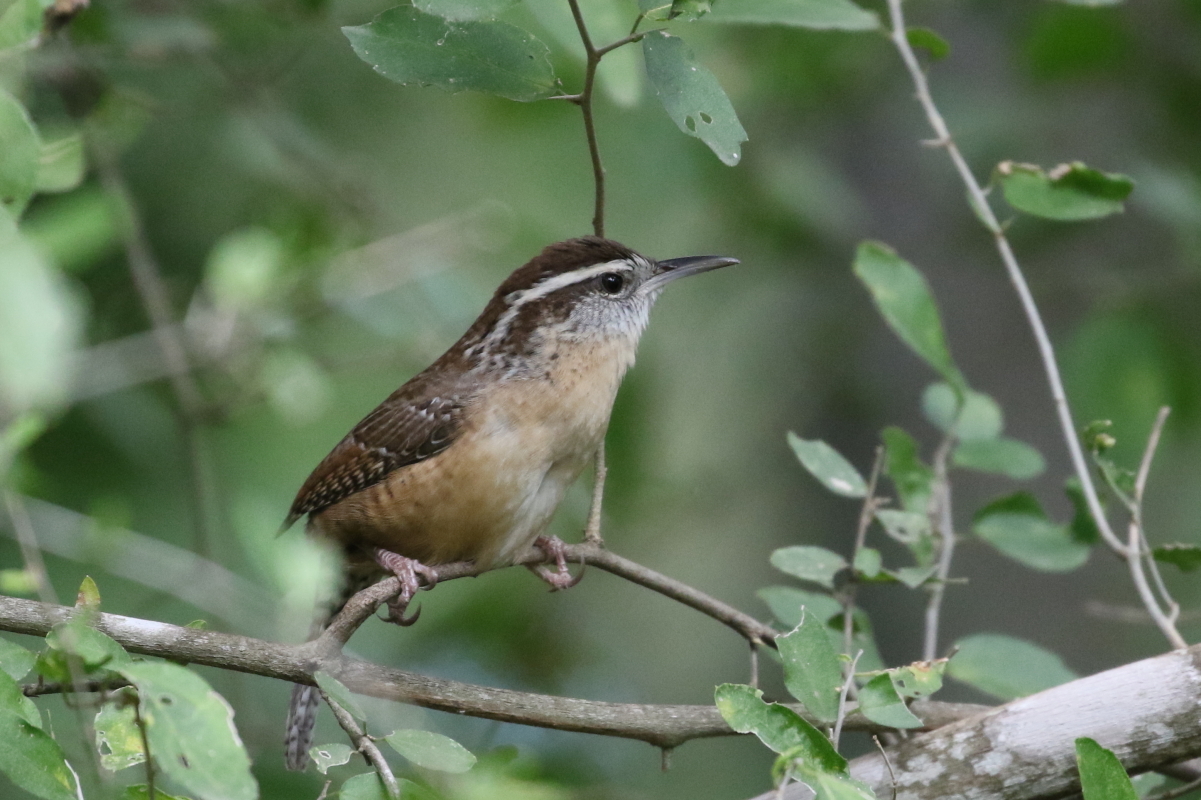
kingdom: Animalia
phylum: Chordata
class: Aves
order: Passeriformes
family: Troglodytidae
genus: Thryothorus
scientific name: Thryothorus ludovicianus
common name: Carolina wren
